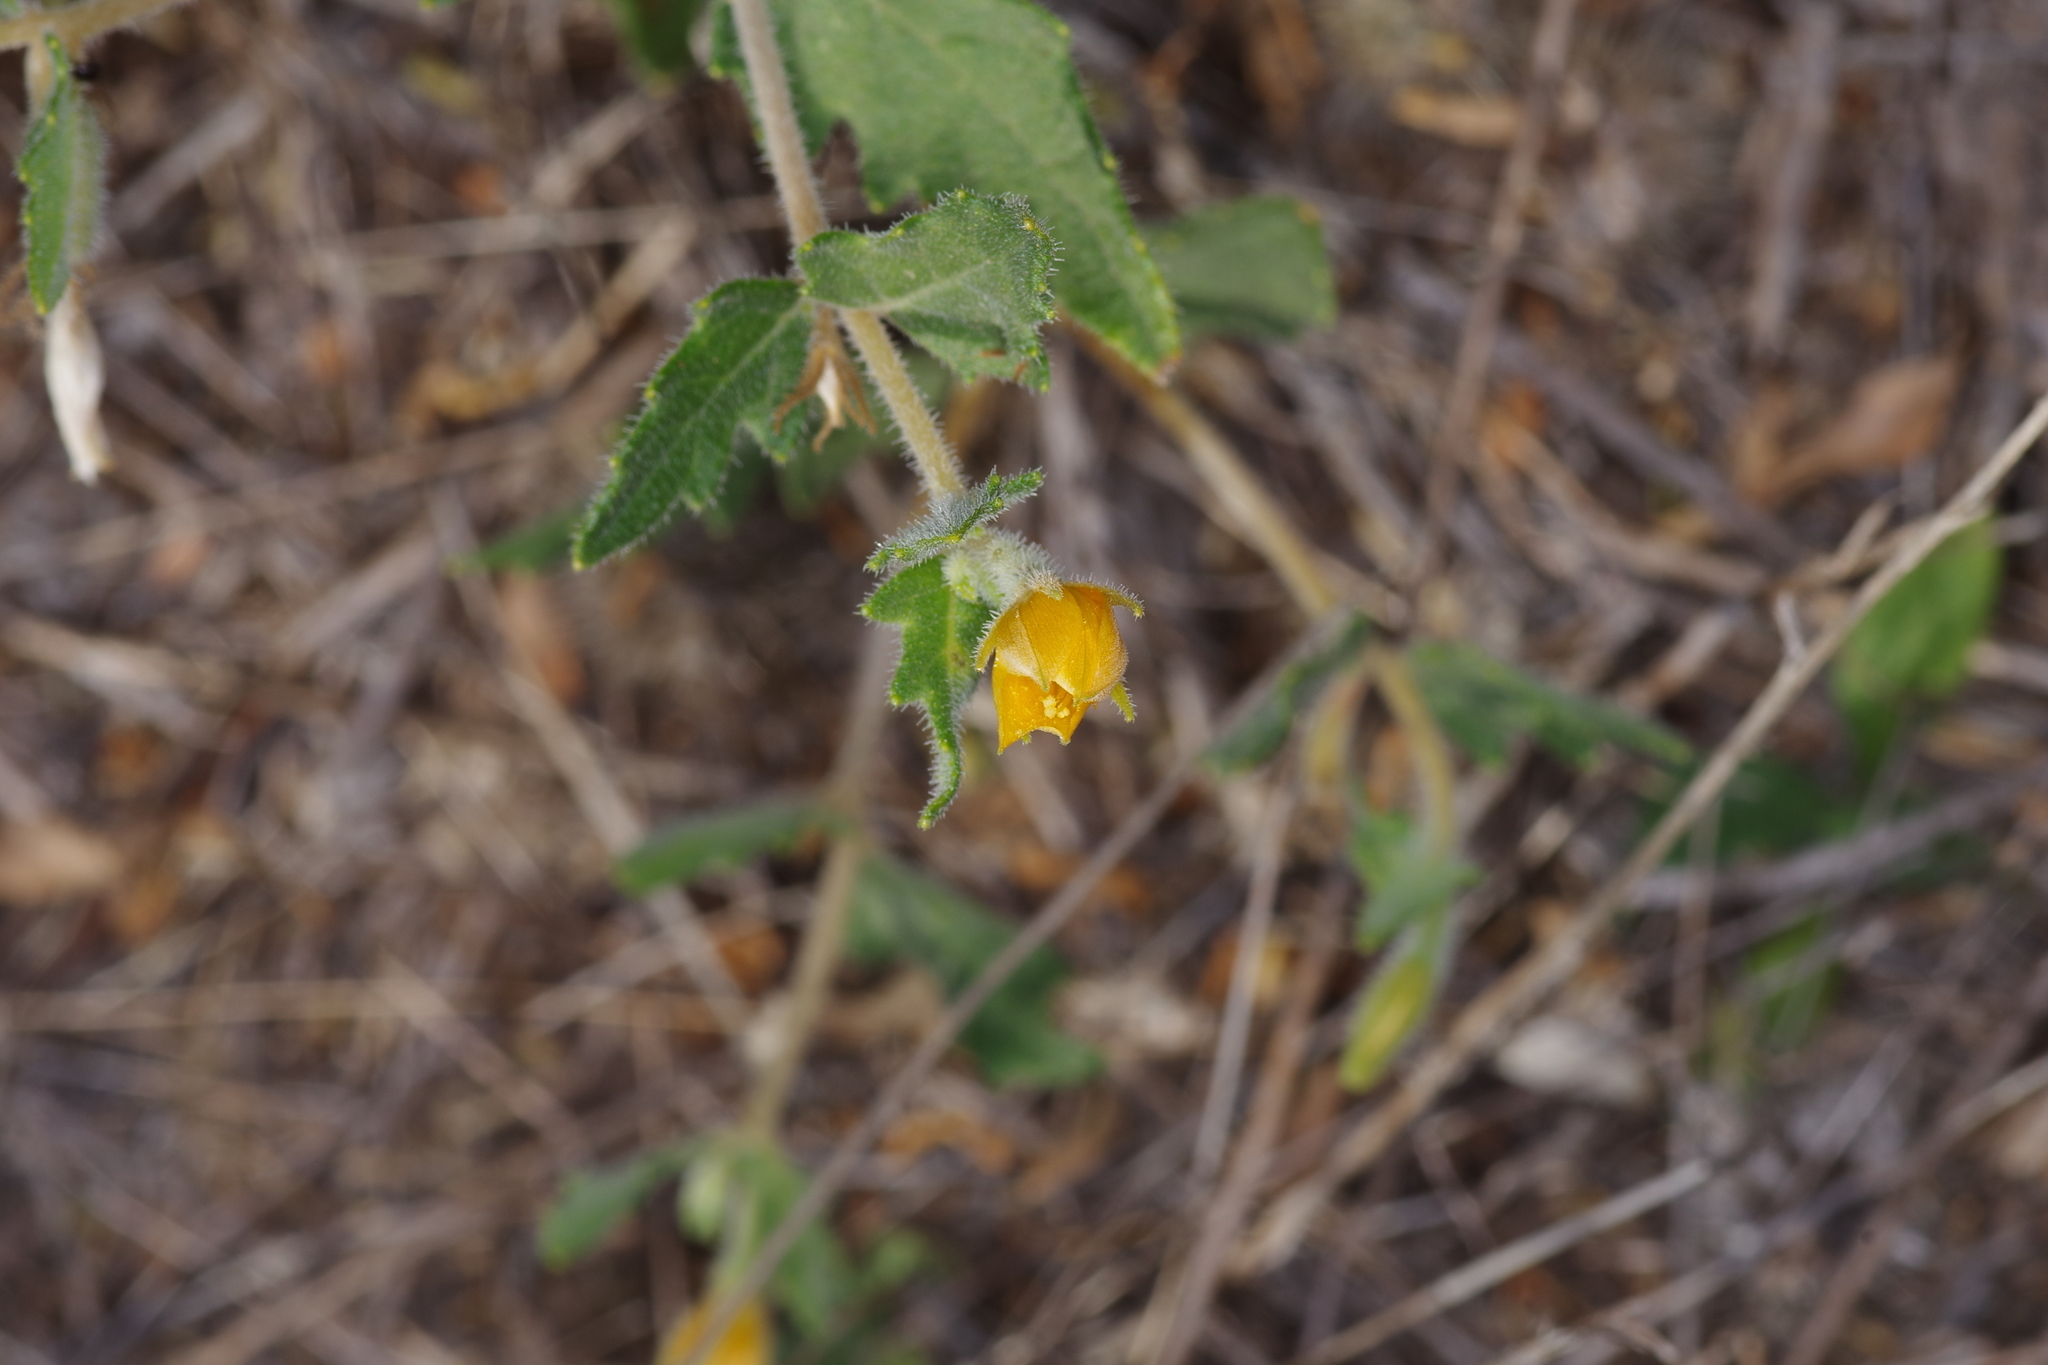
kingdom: Plantae
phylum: Tracheophyta
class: Magnoliopsida
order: Cornales
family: Loasaceae
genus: Mentzelia
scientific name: Mentzelia oligosperma
